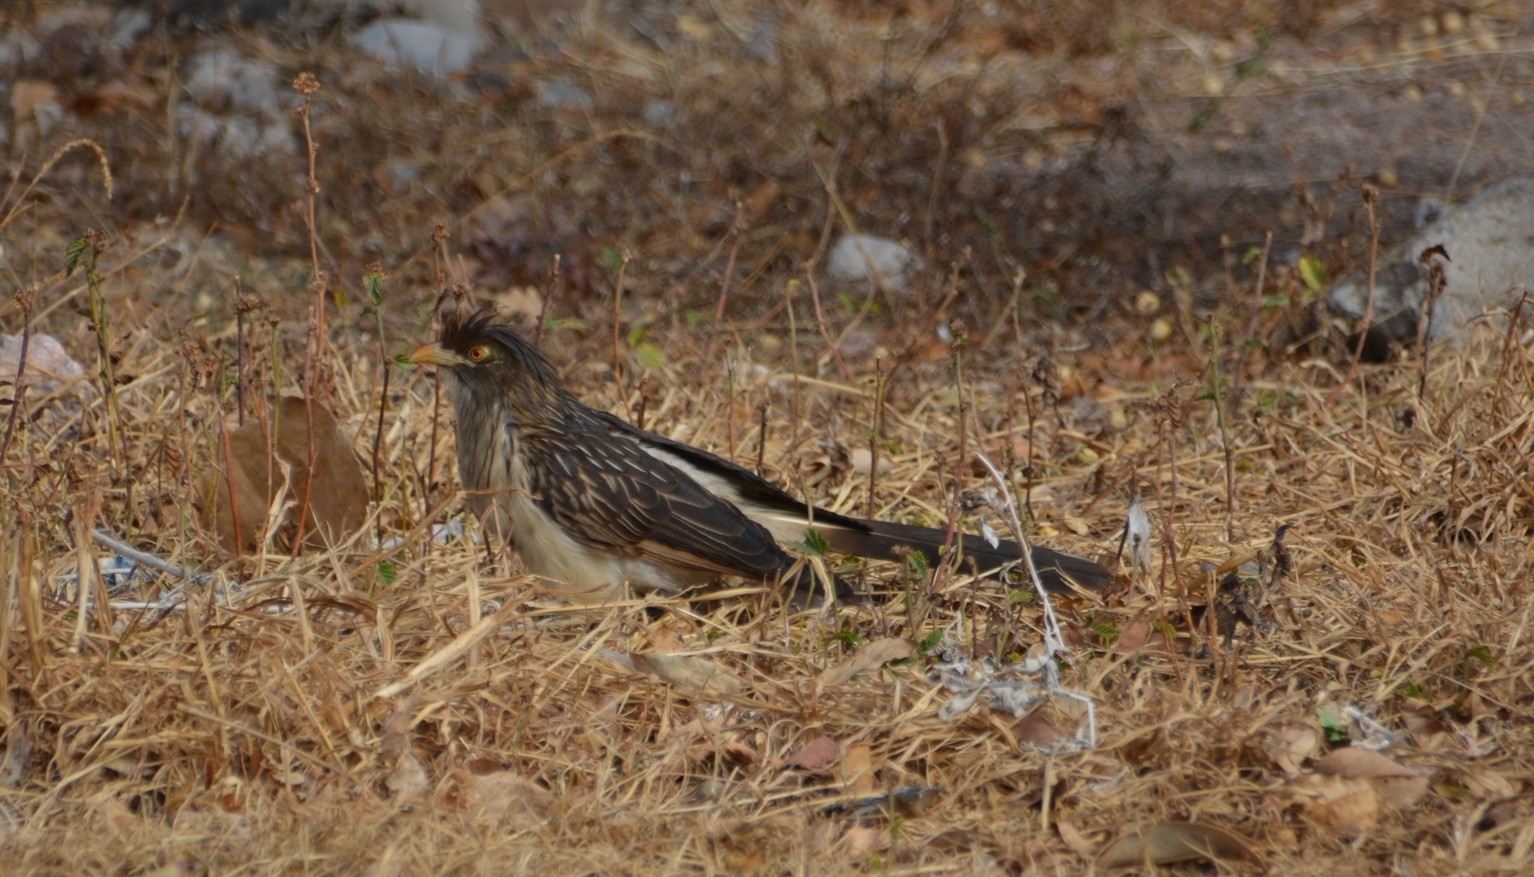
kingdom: Animalia
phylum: Chordata
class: Aves
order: Cuculiformes
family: Cuculidae
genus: Guira
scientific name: Guira guira
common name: Guira cuckoo
